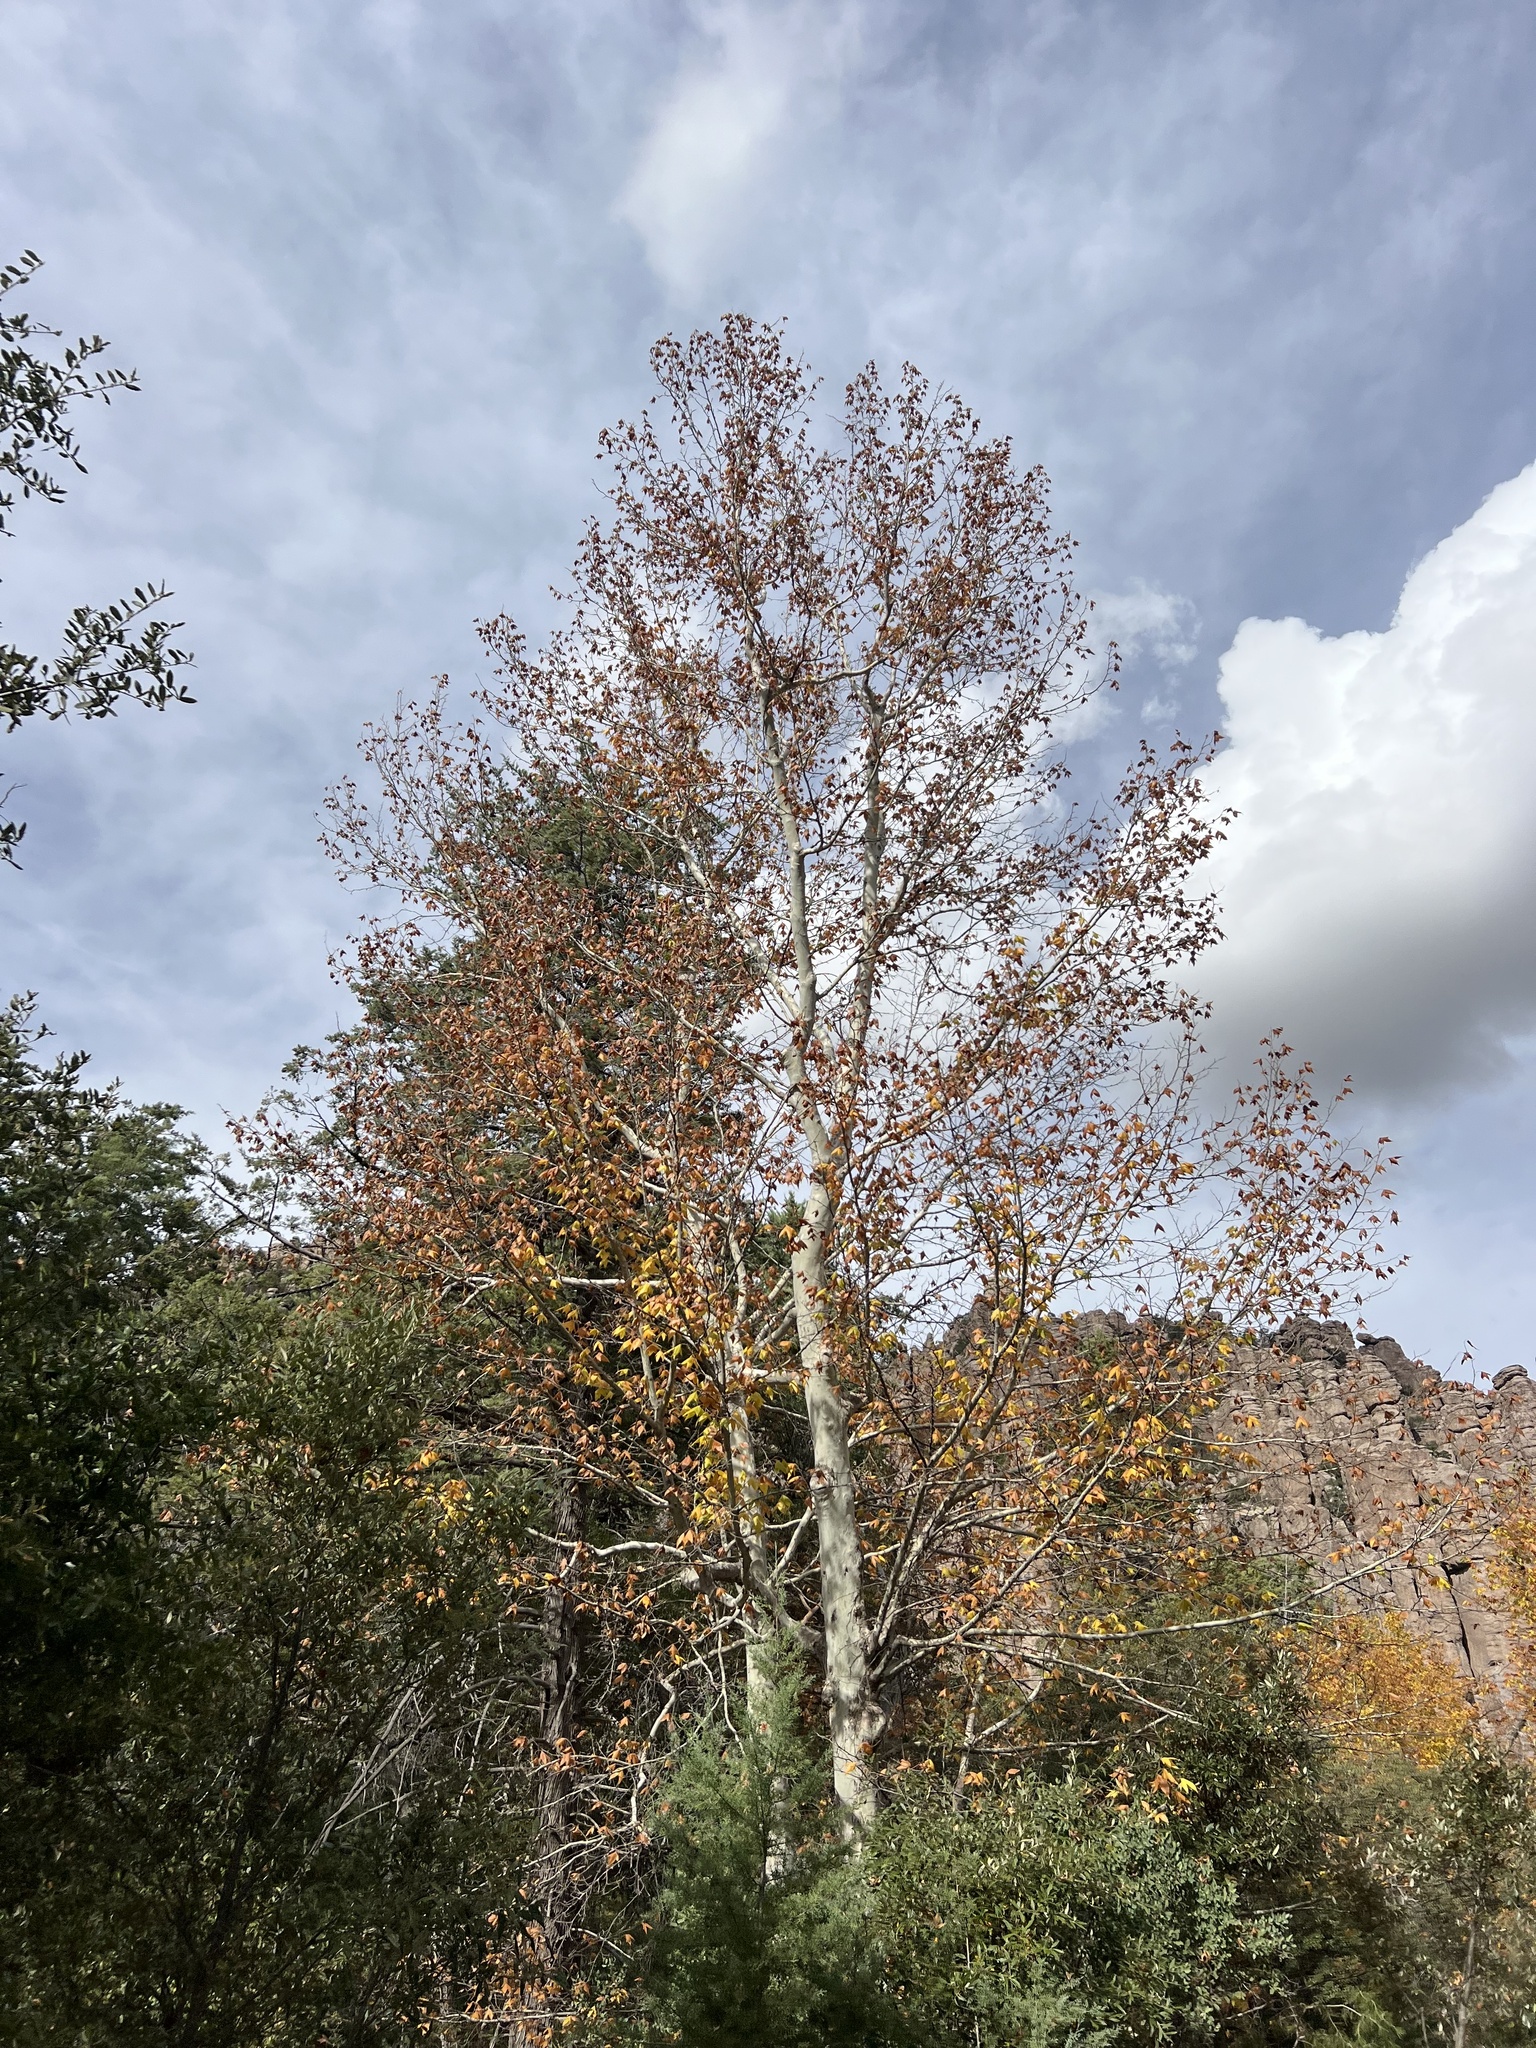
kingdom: Plantae
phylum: Tracheophyta
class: Magnoliopsida
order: Proteales
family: Platanaceae
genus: Platanus
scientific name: Platanus wrightii
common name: Arizona sycamore
